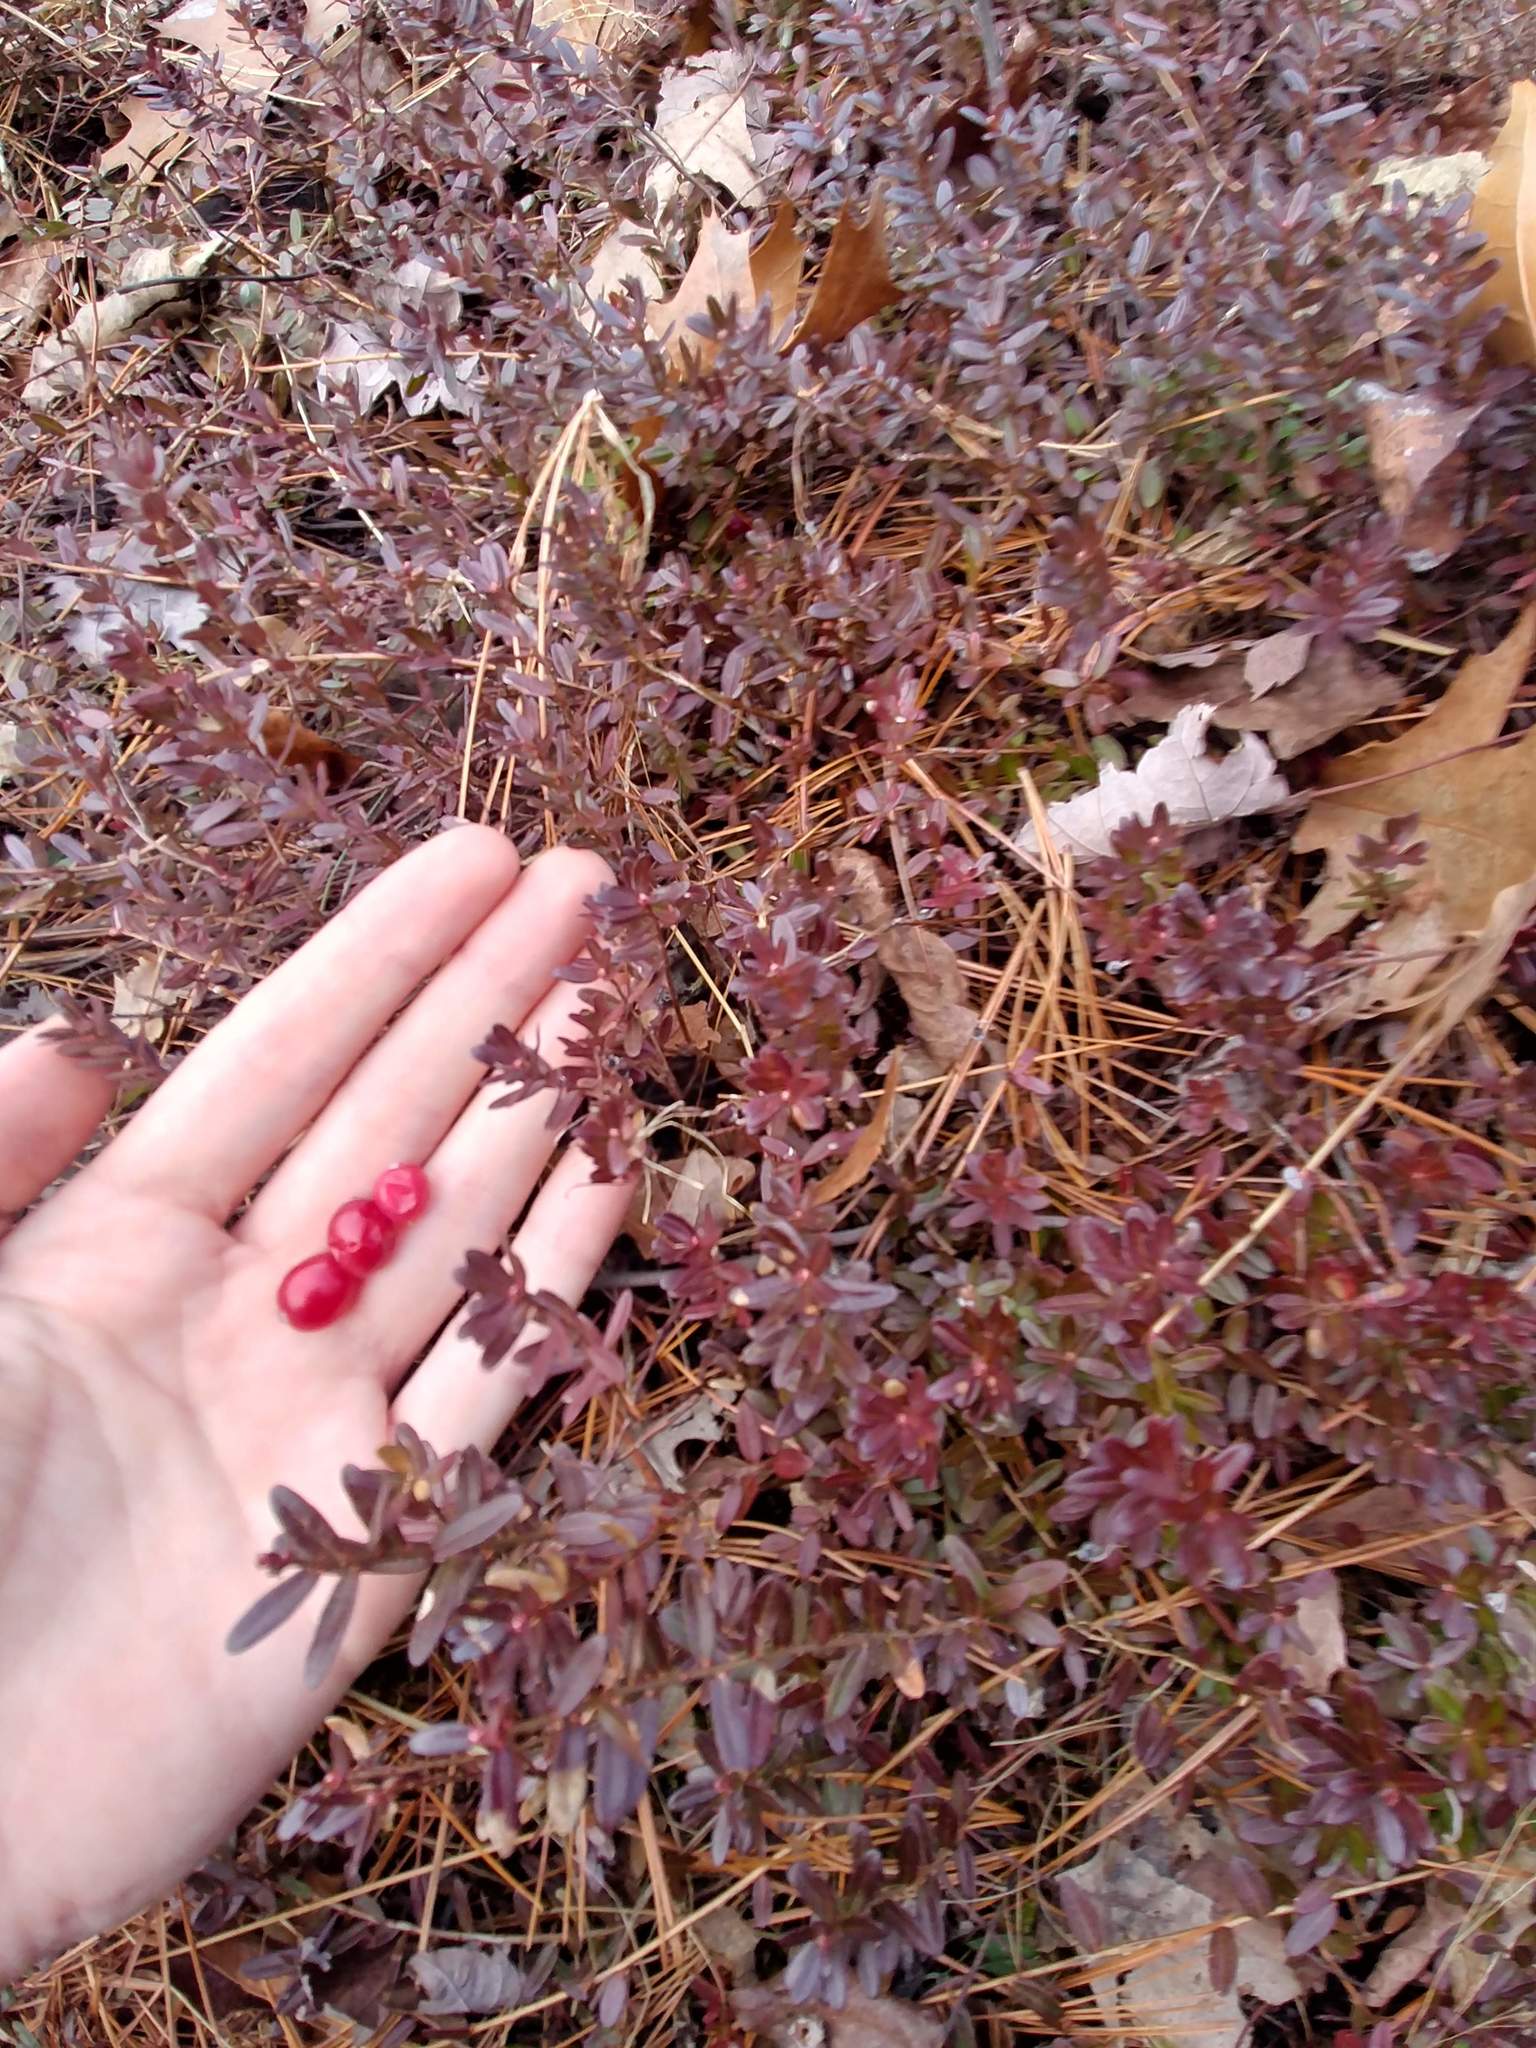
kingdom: Plantae
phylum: Tracheophyta
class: Magnoliopsida
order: Ericales
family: Ericaceae
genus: Vaccinium
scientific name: Vaccinium macrocarpon
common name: American cranberry
